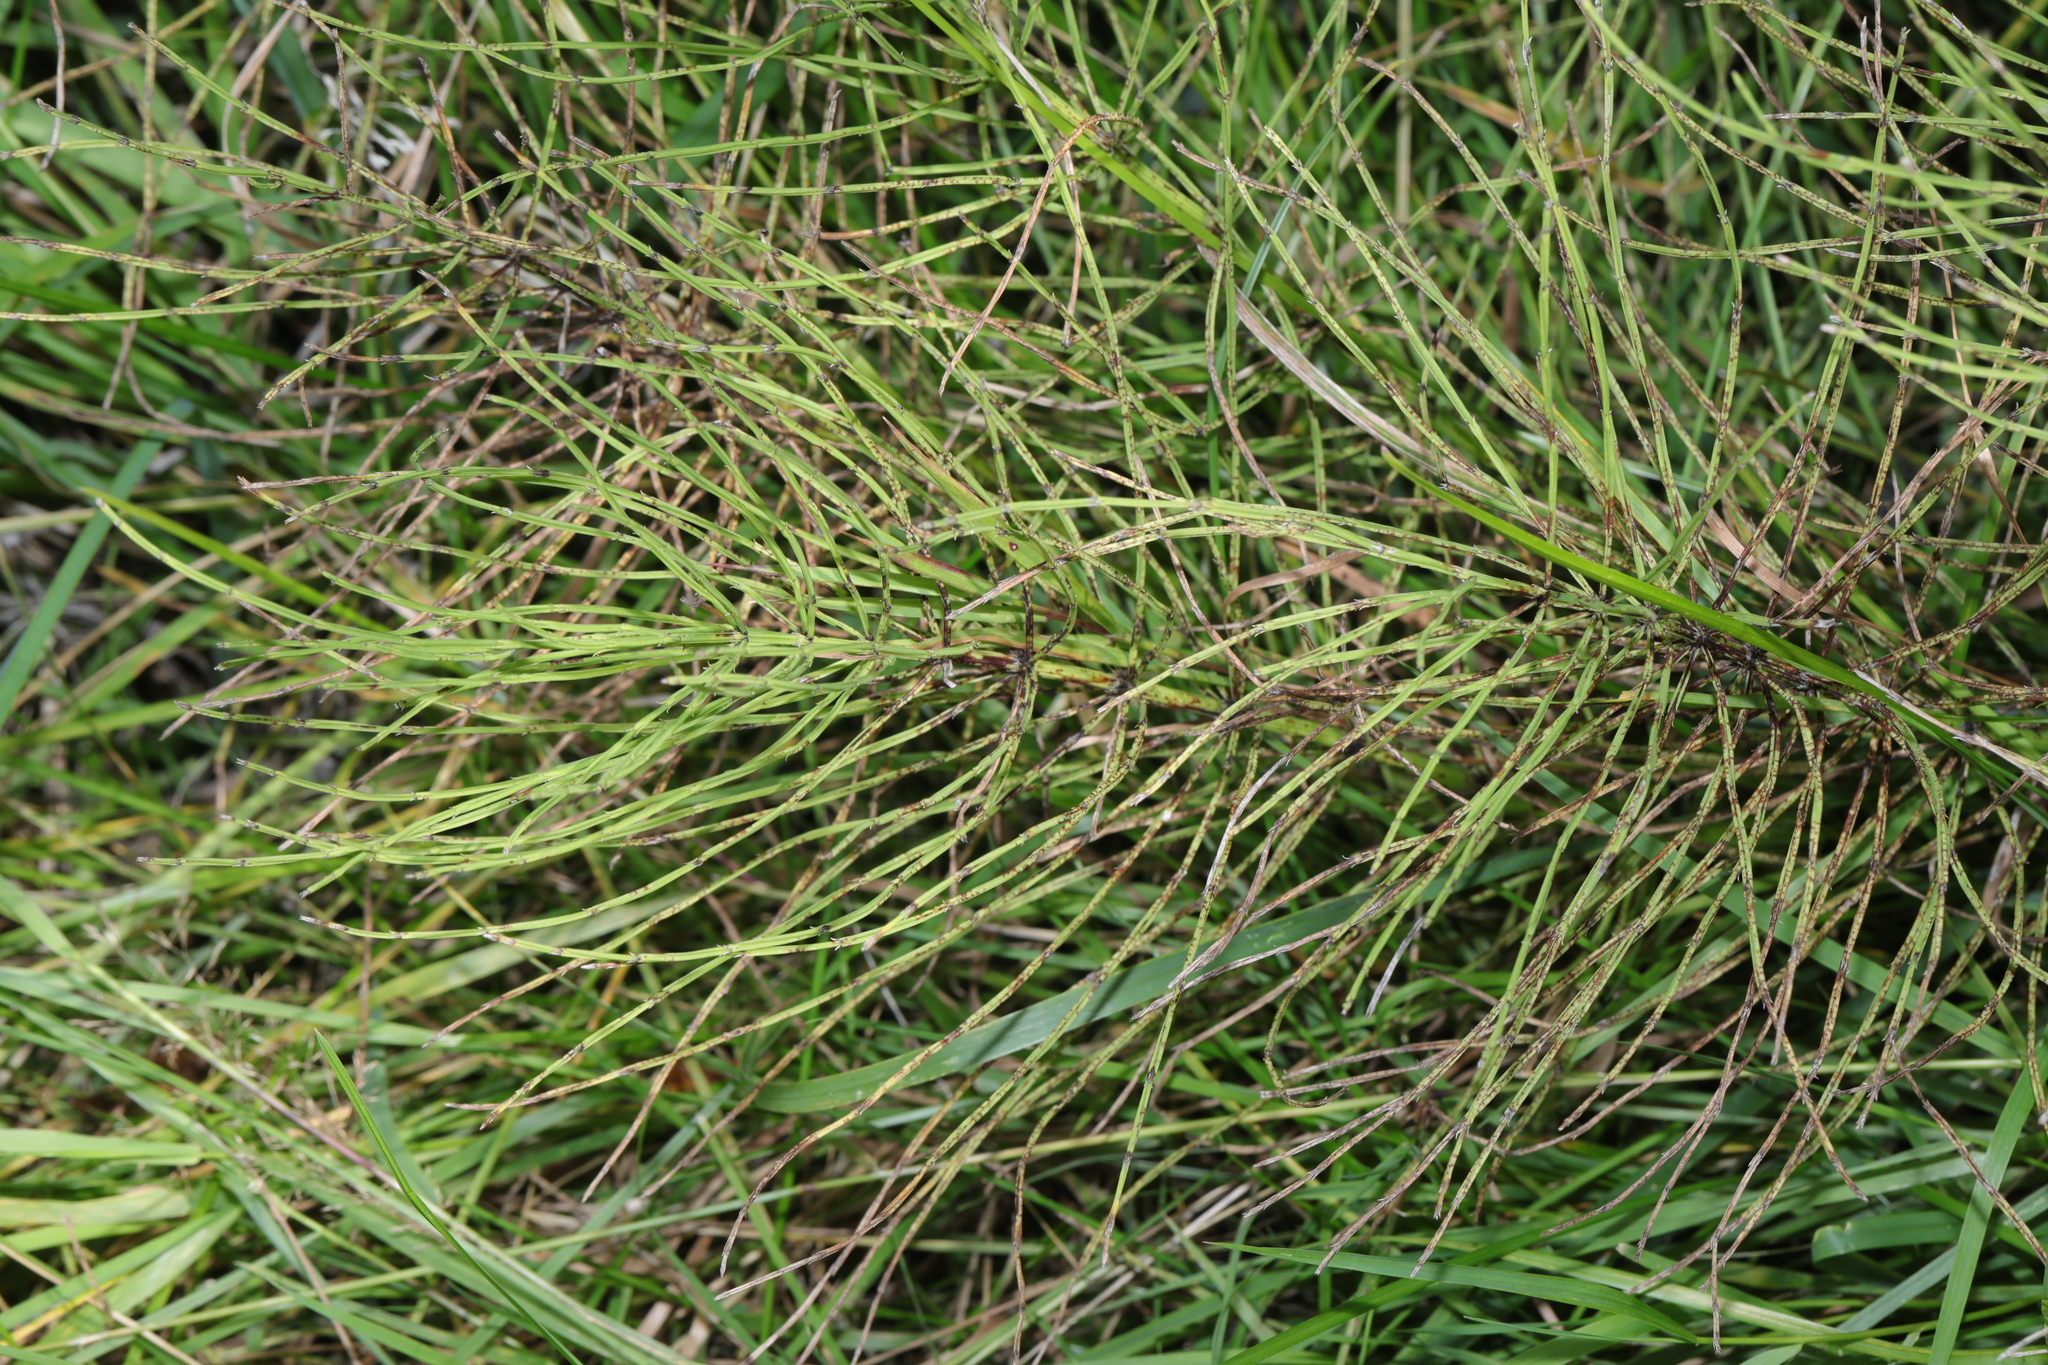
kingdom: Plantae
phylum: Tracheophyta
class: Polypodiopsida
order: Equisetales
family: Equisetaceae
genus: Equisetum
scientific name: Equisetum arvense
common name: Field horsetail
